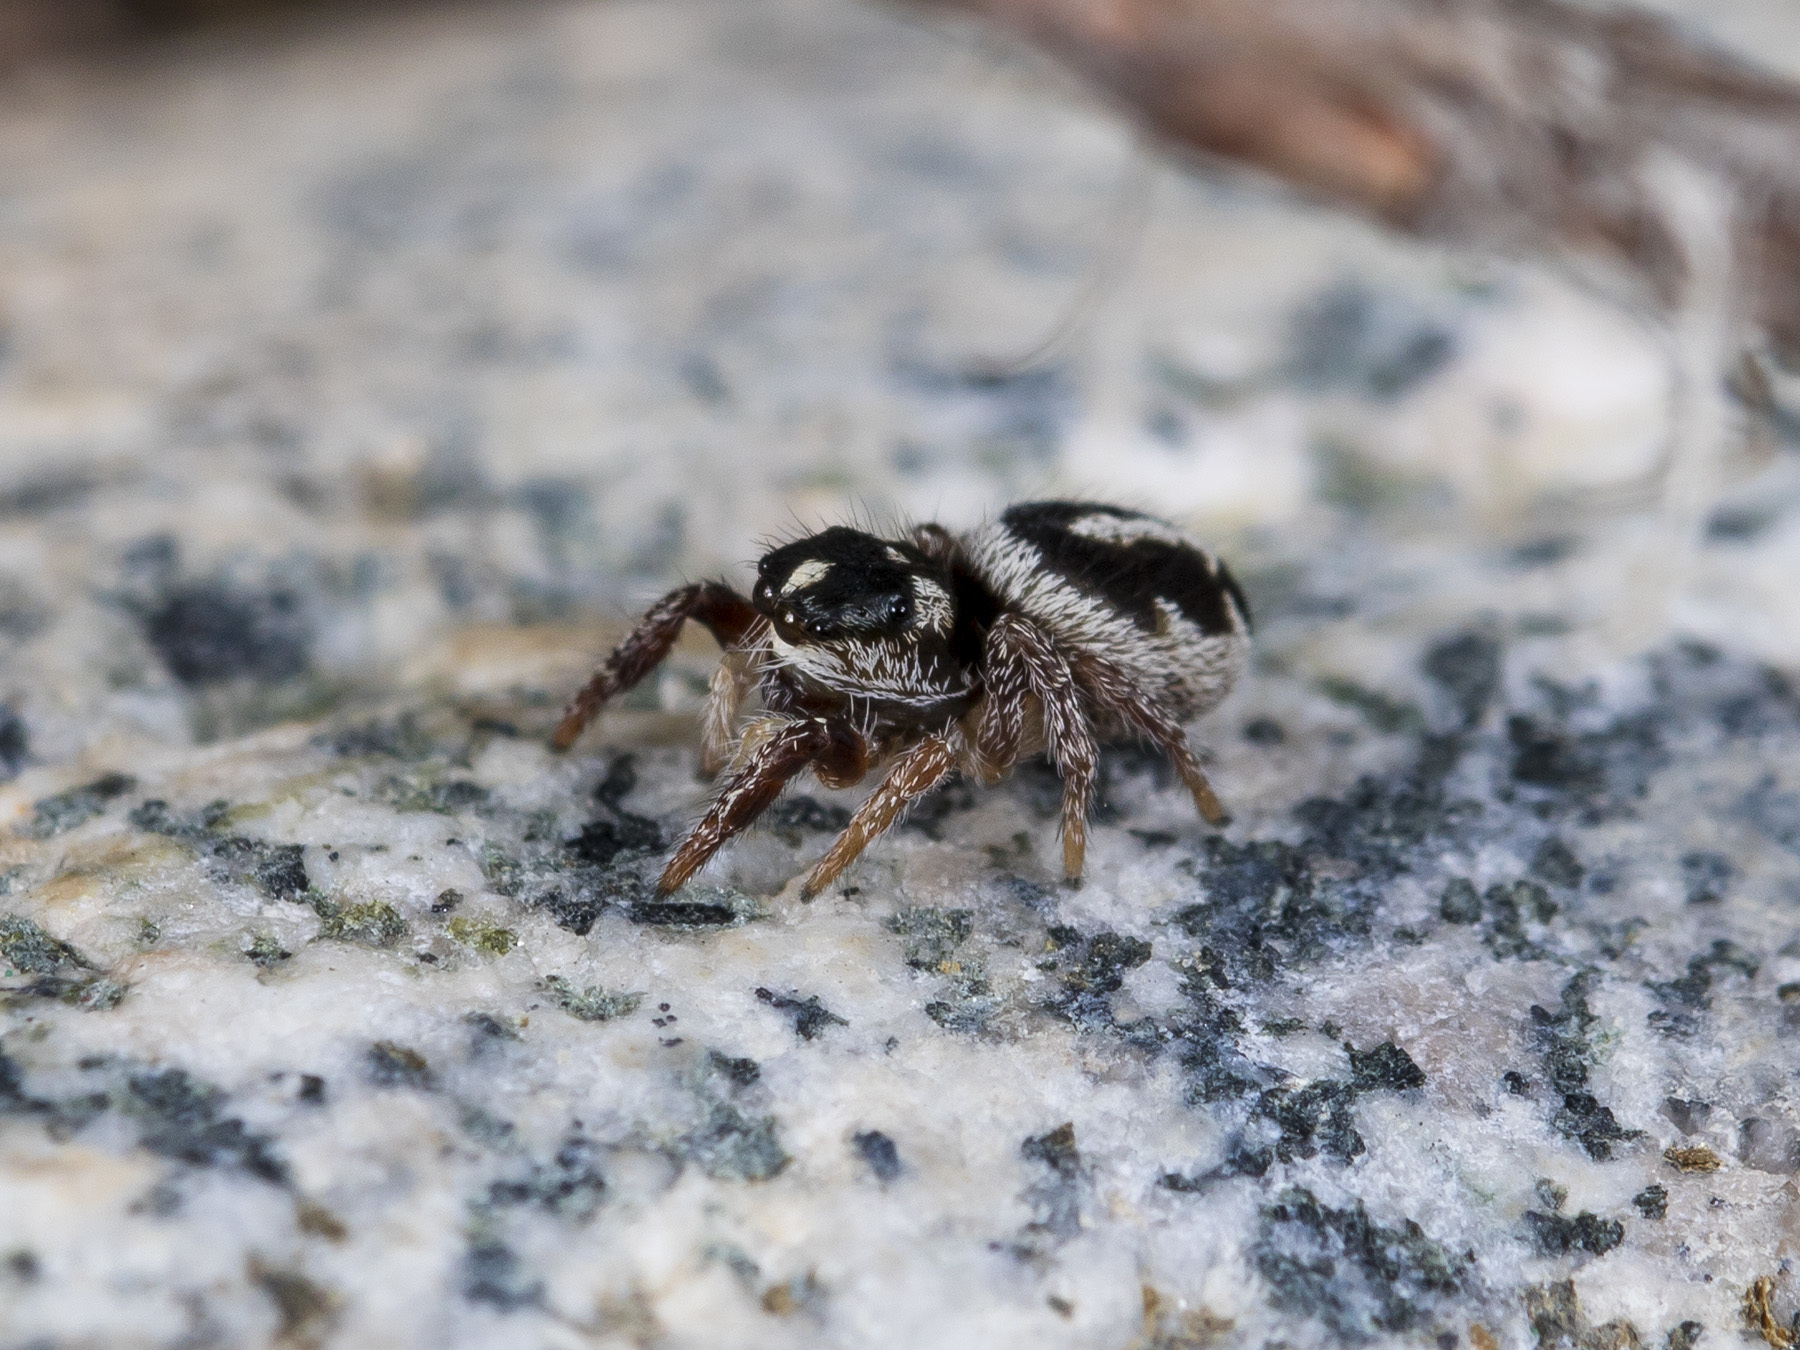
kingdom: Animalia
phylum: Arthropoda
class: Arachnida
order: Araneae
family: Salticidae
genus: Pellenes
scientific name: Pellenes allegrii
